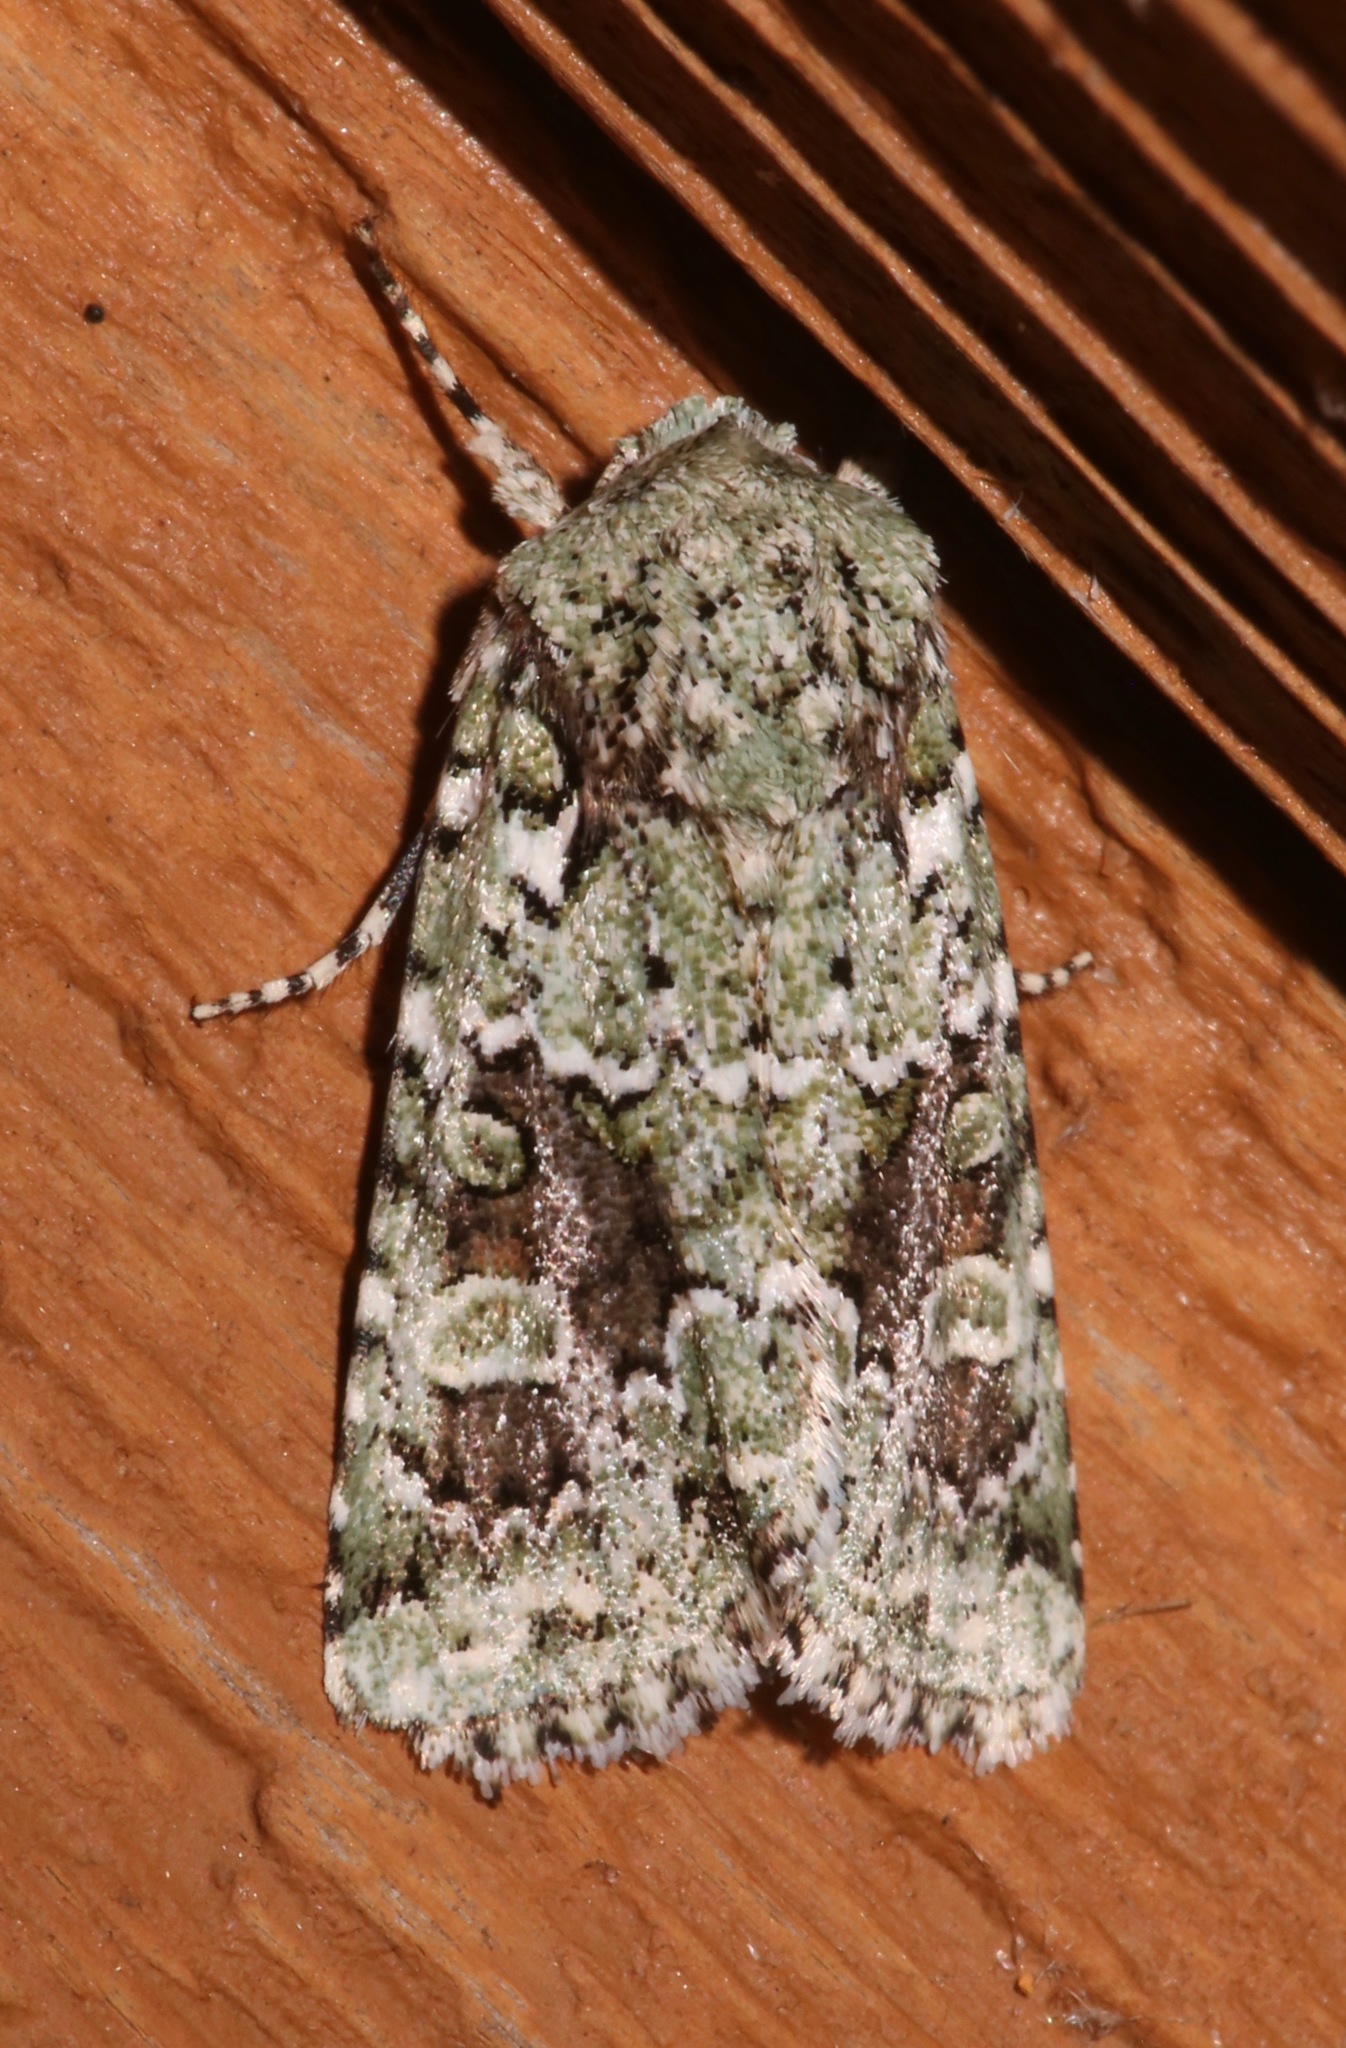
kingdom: Animalia
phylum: Arthropoda
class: Insecta
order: Lepidoptera
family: Noctuidae
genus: Lacinipolia
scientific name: Lacinipolia laudabilis
